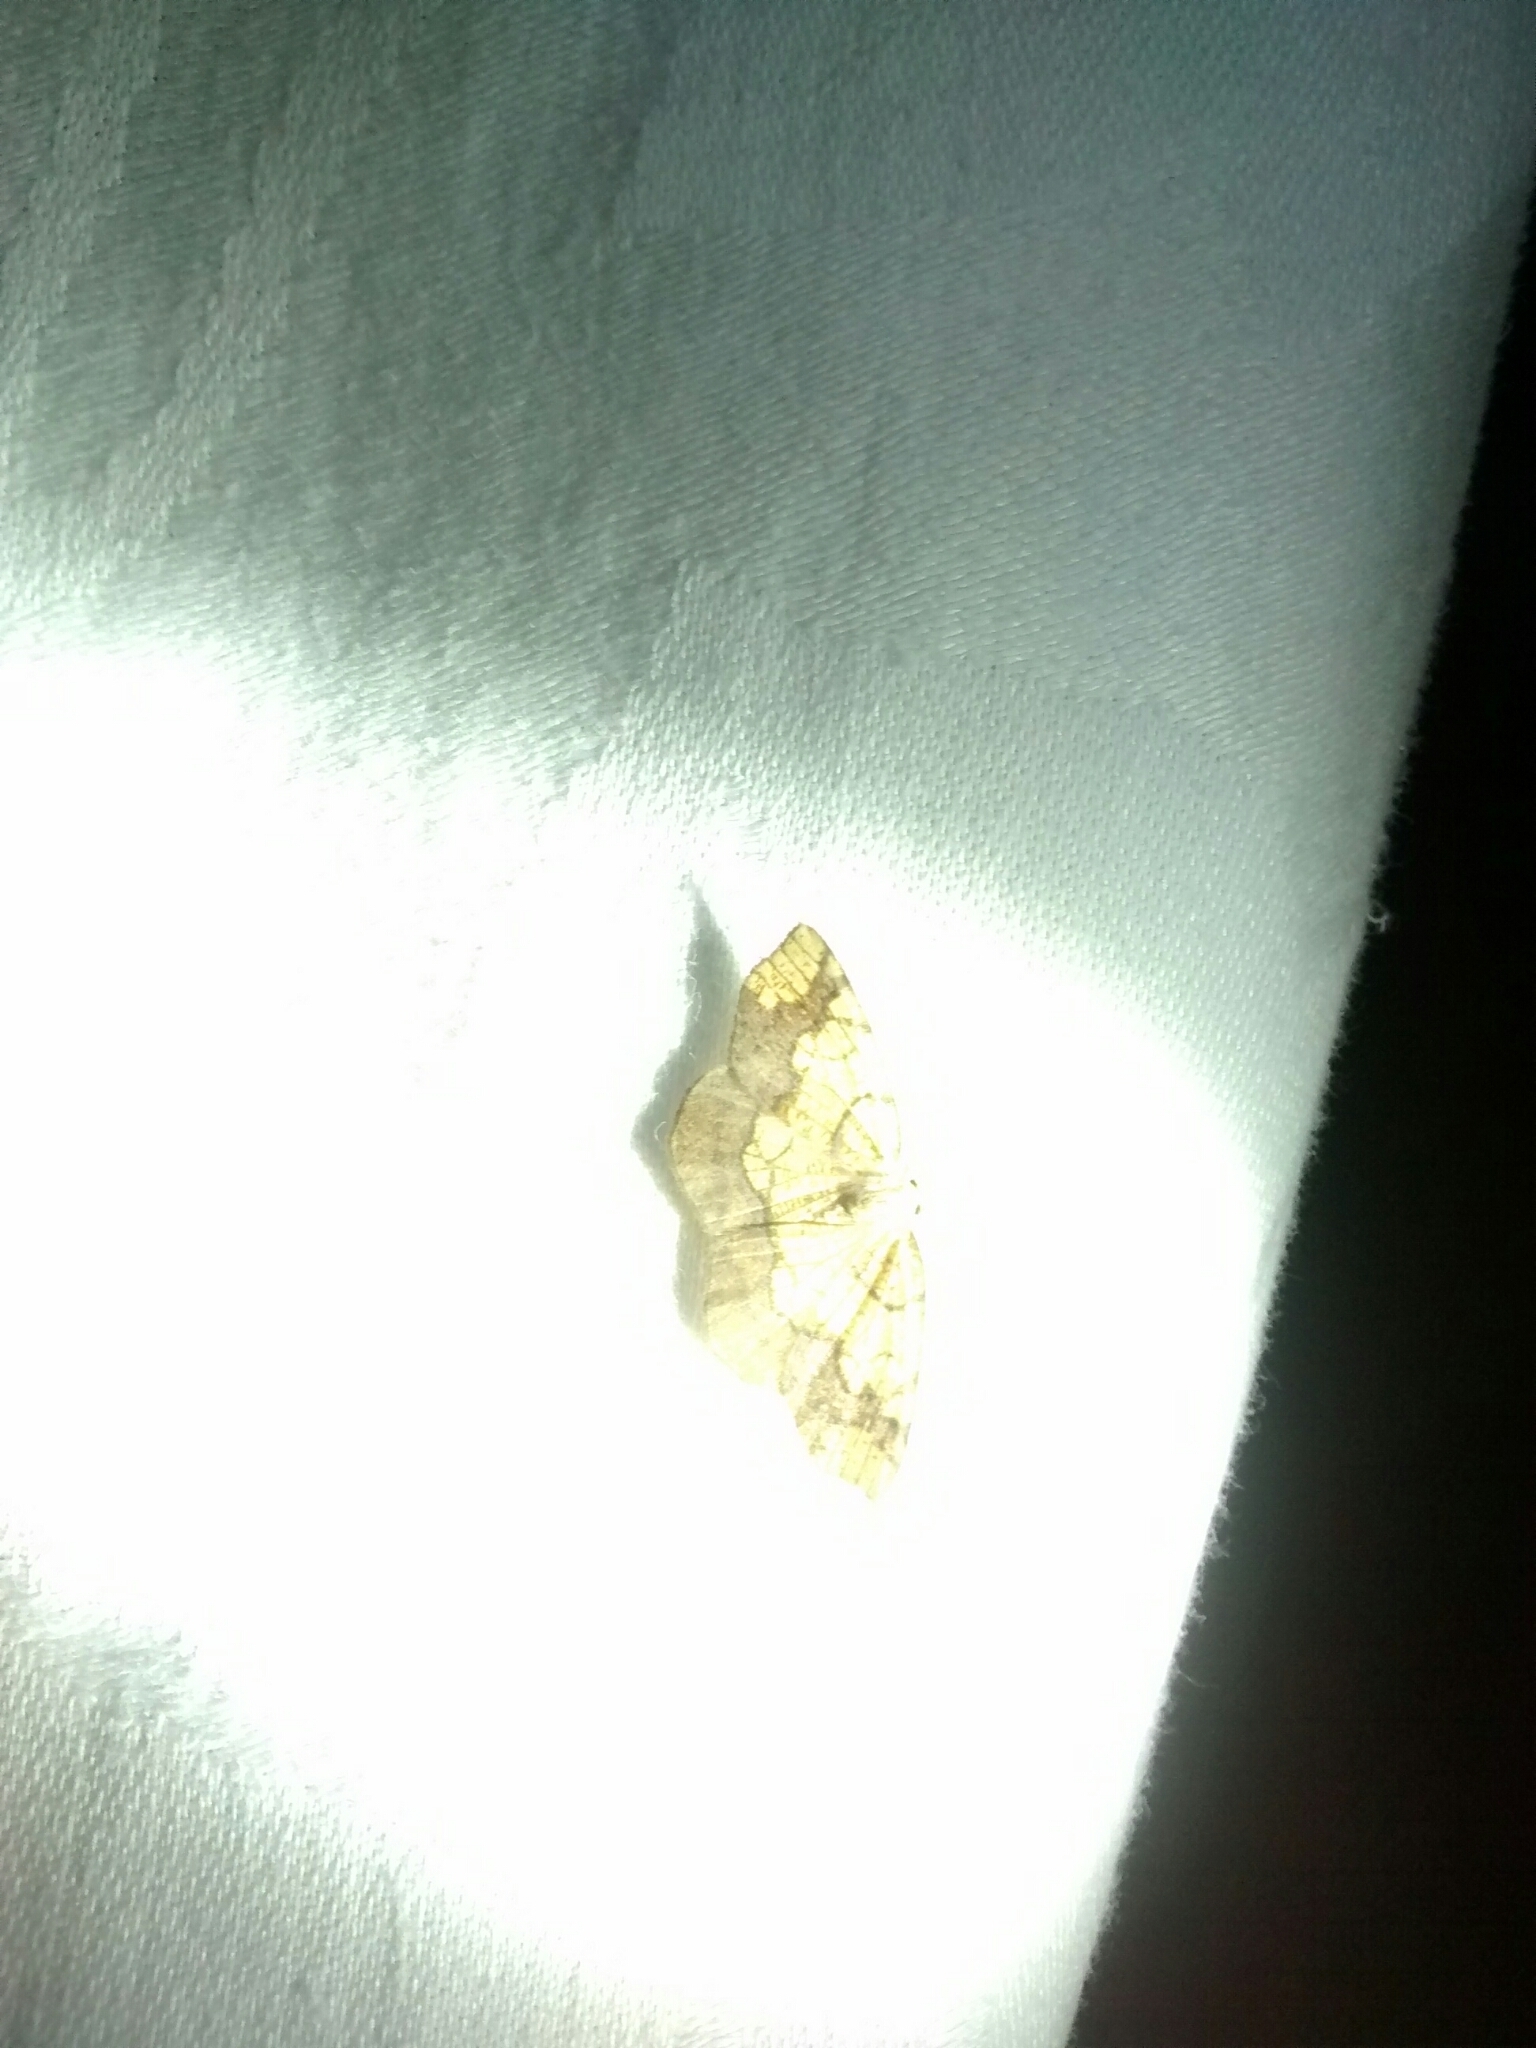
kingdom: Animalia
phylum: Arthropoda
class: Insecta
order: Lepidoptera
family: Geometridae
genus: Nematocampa
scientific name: Nematocampa resistaria
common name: Horned spanworm moth
